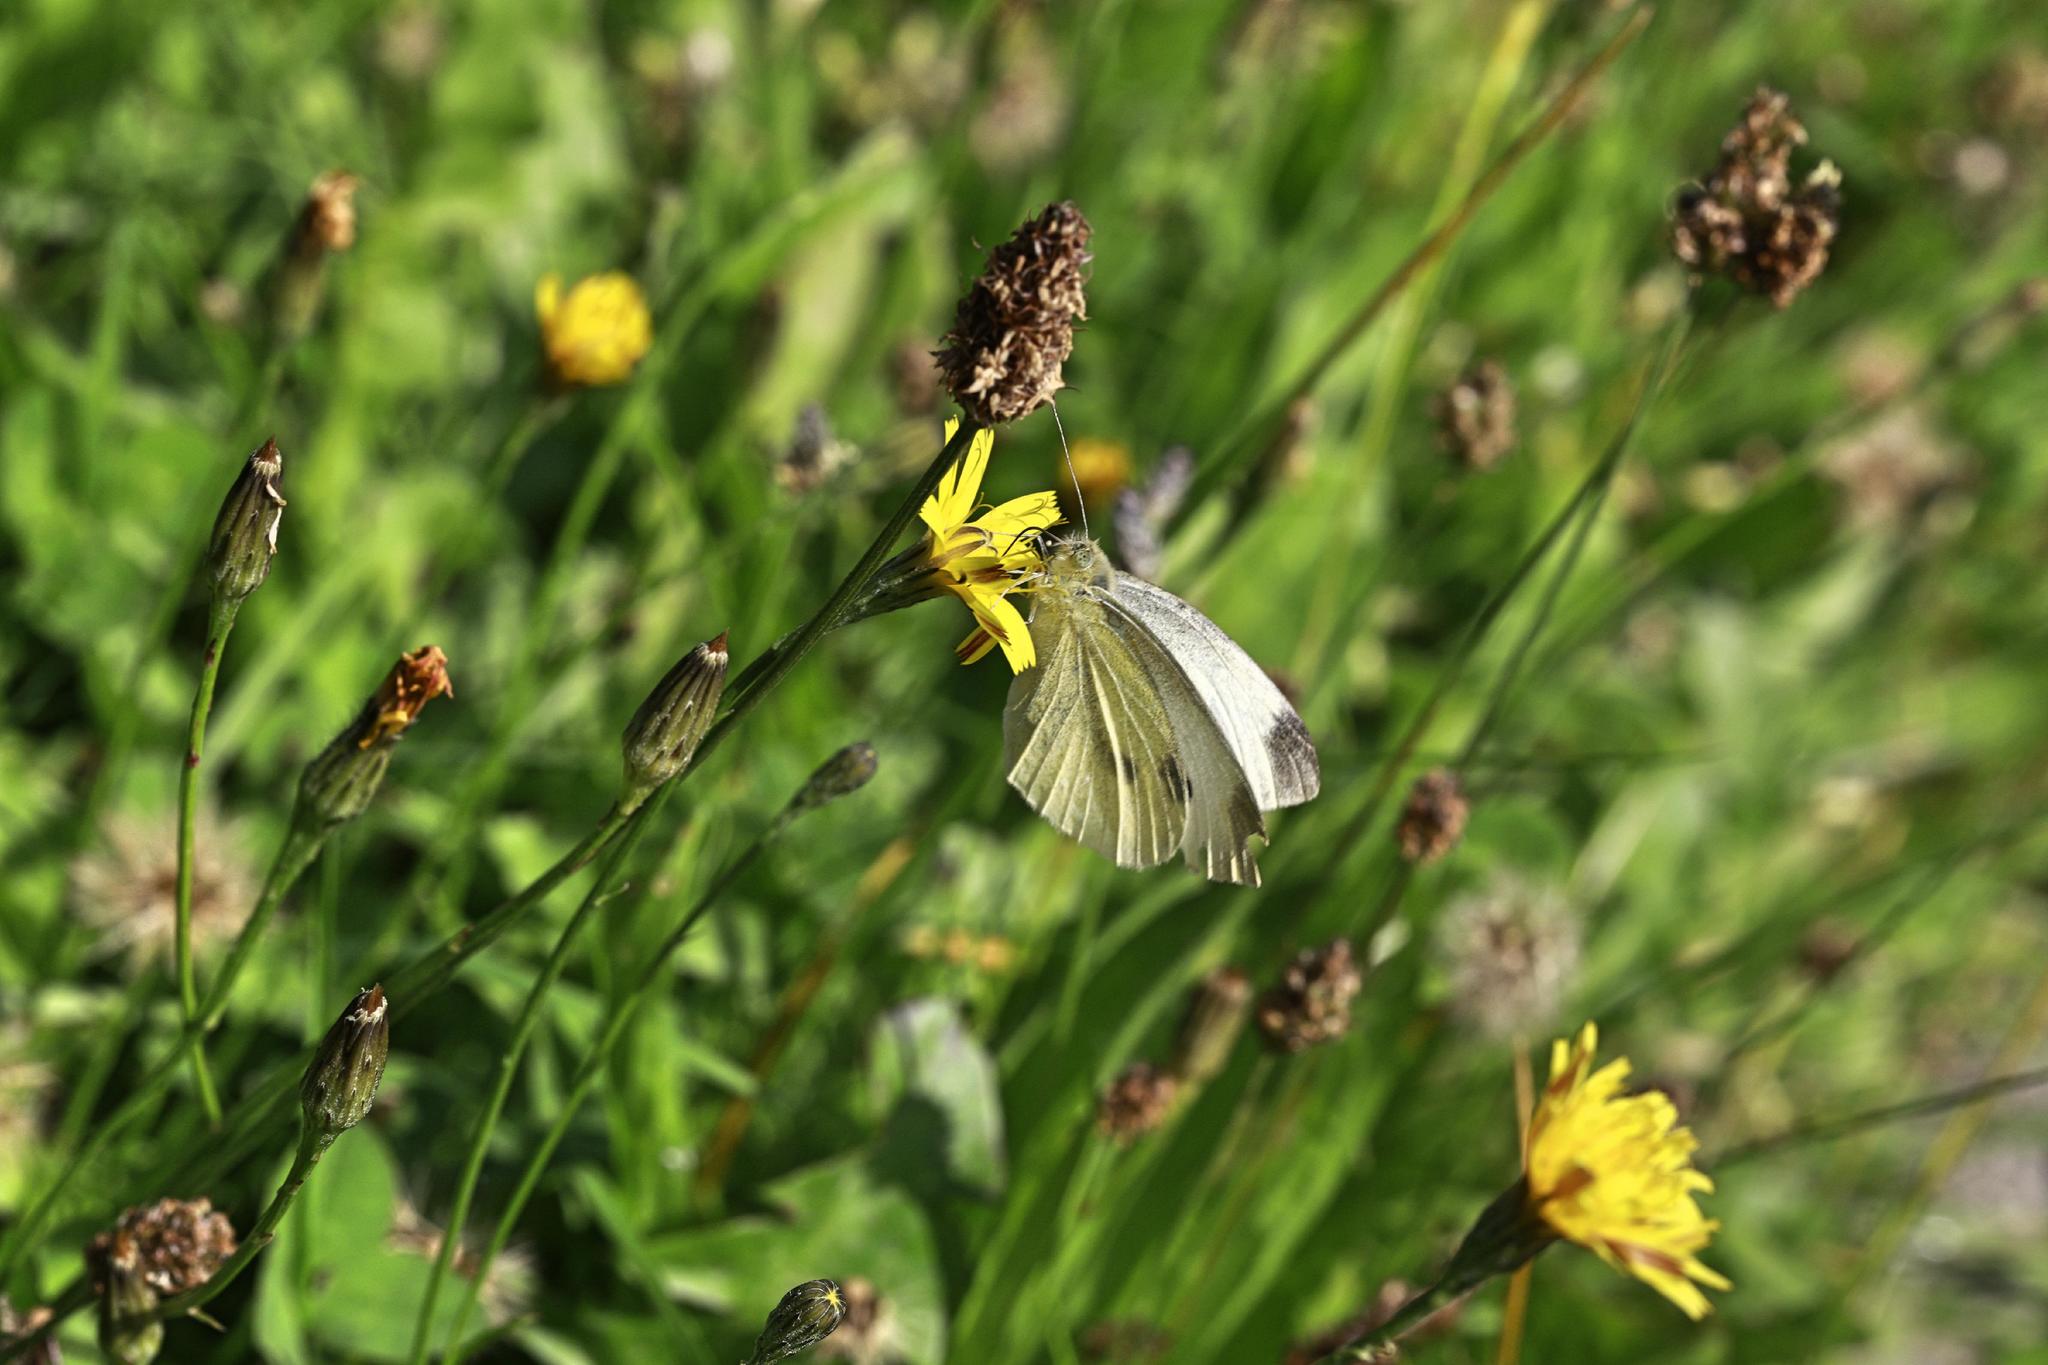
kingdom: Animalia
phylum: Arthropoda
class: Insecta
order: Lepidoptera
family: Pieridae
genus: Pieris
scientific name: Pieris rapae
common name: Small white
